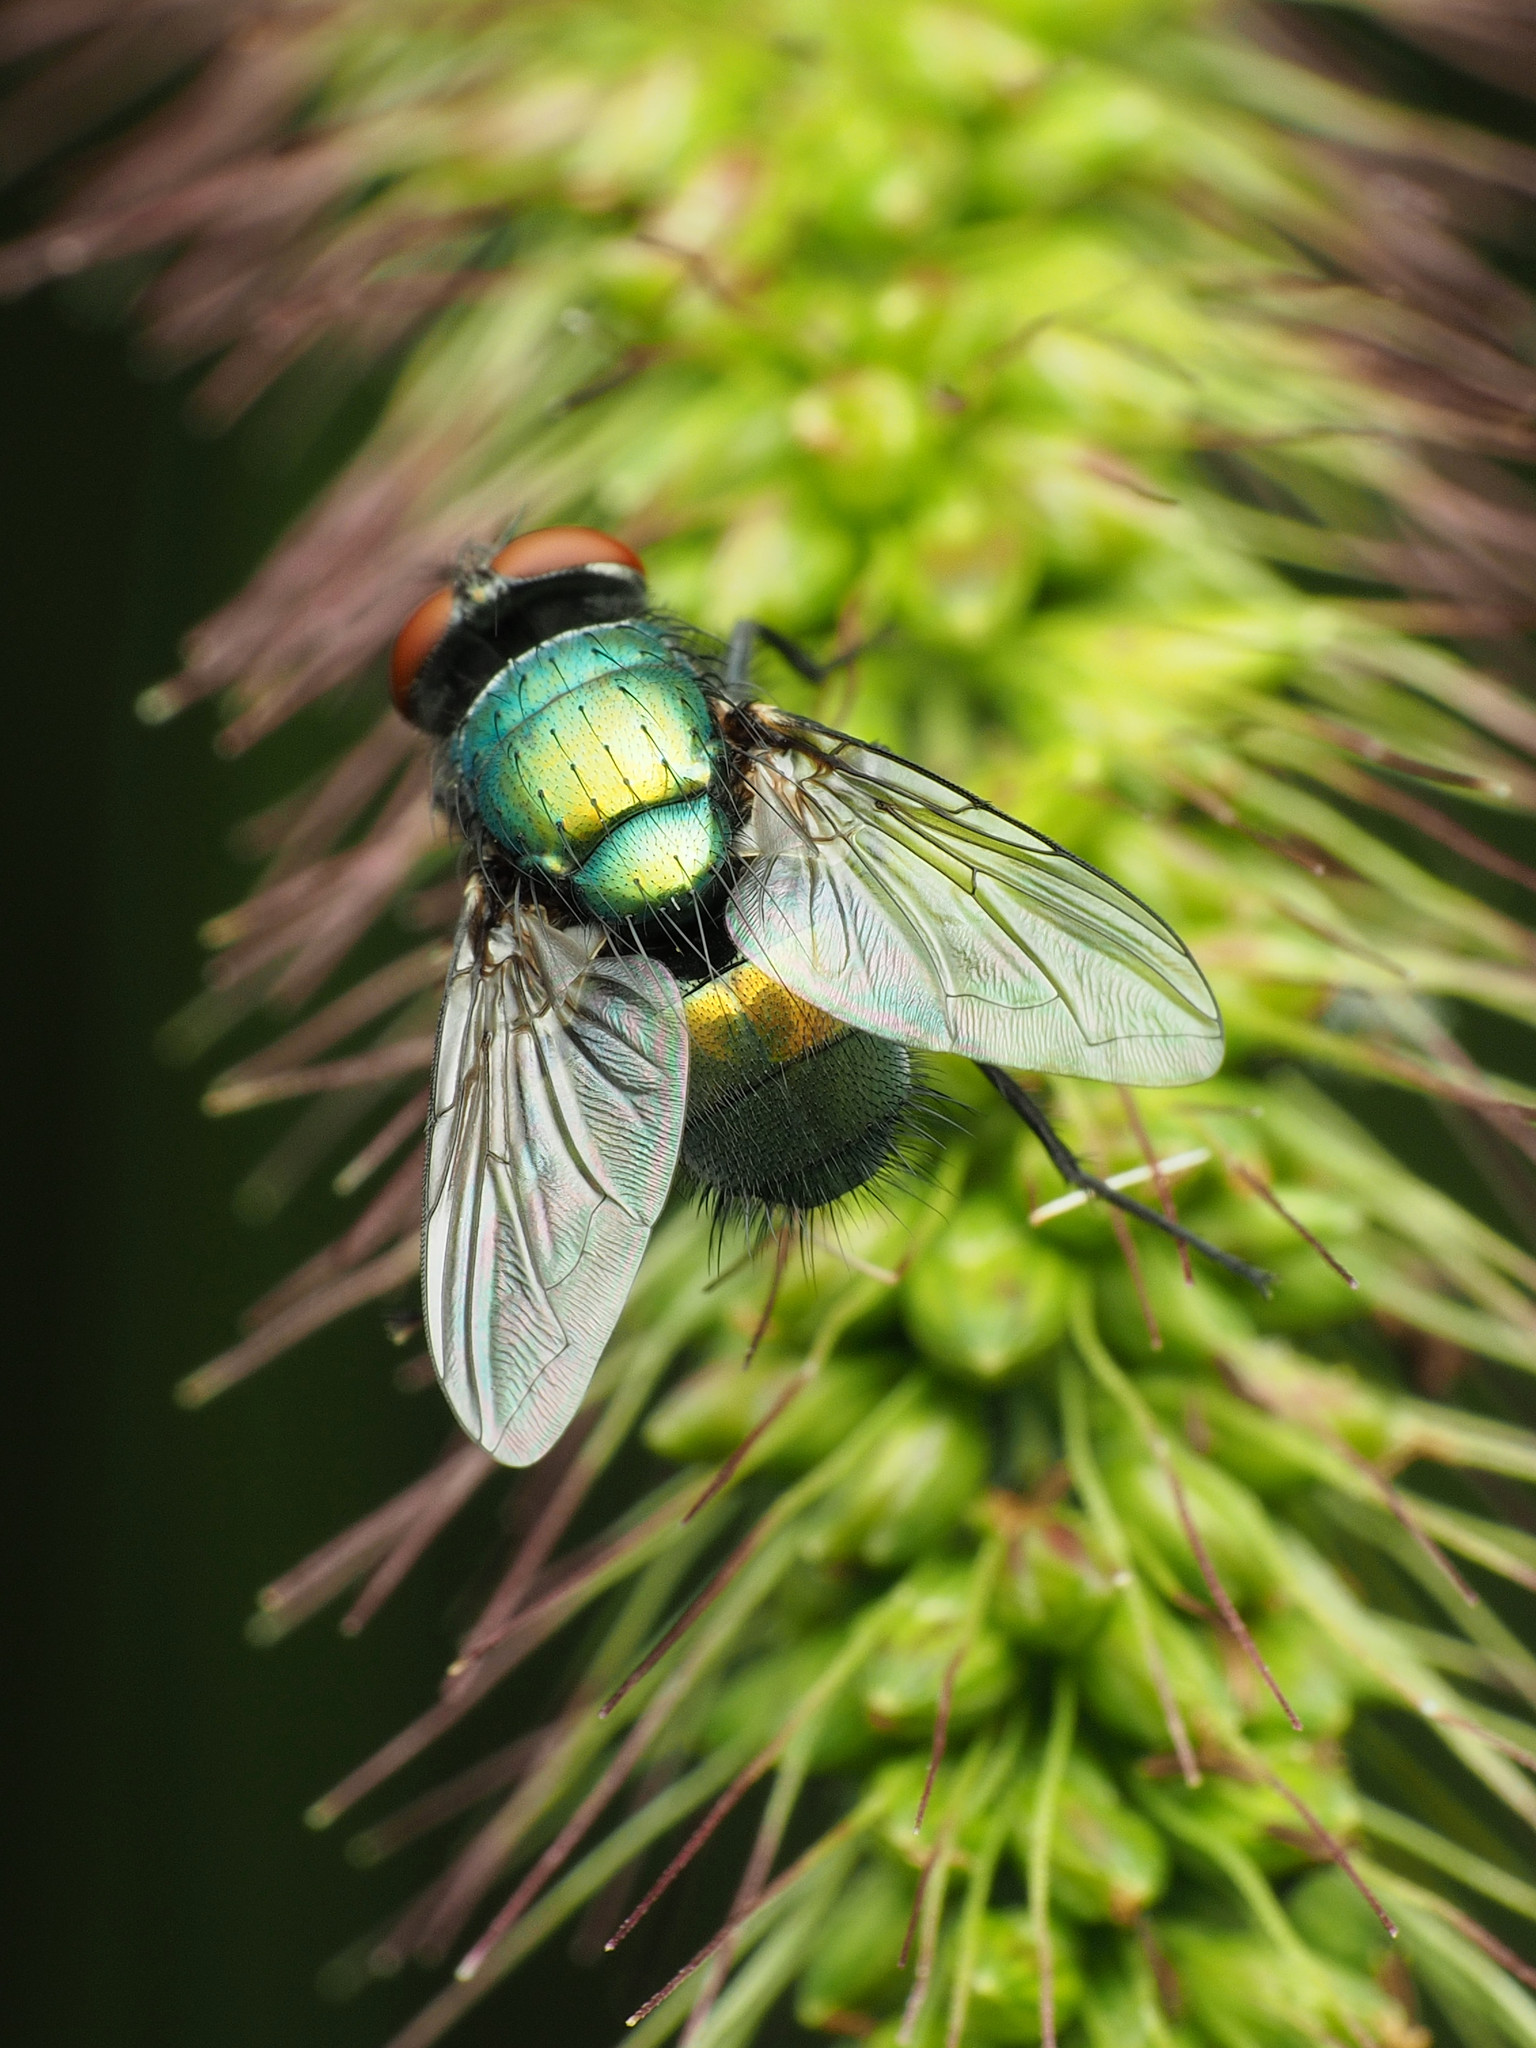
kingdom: Animalia
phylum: Arthropoda
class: Insecta
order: Diptera
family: Calliphoridae
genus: Lucilia
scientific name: Lucilia sericata
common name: Blow fly
